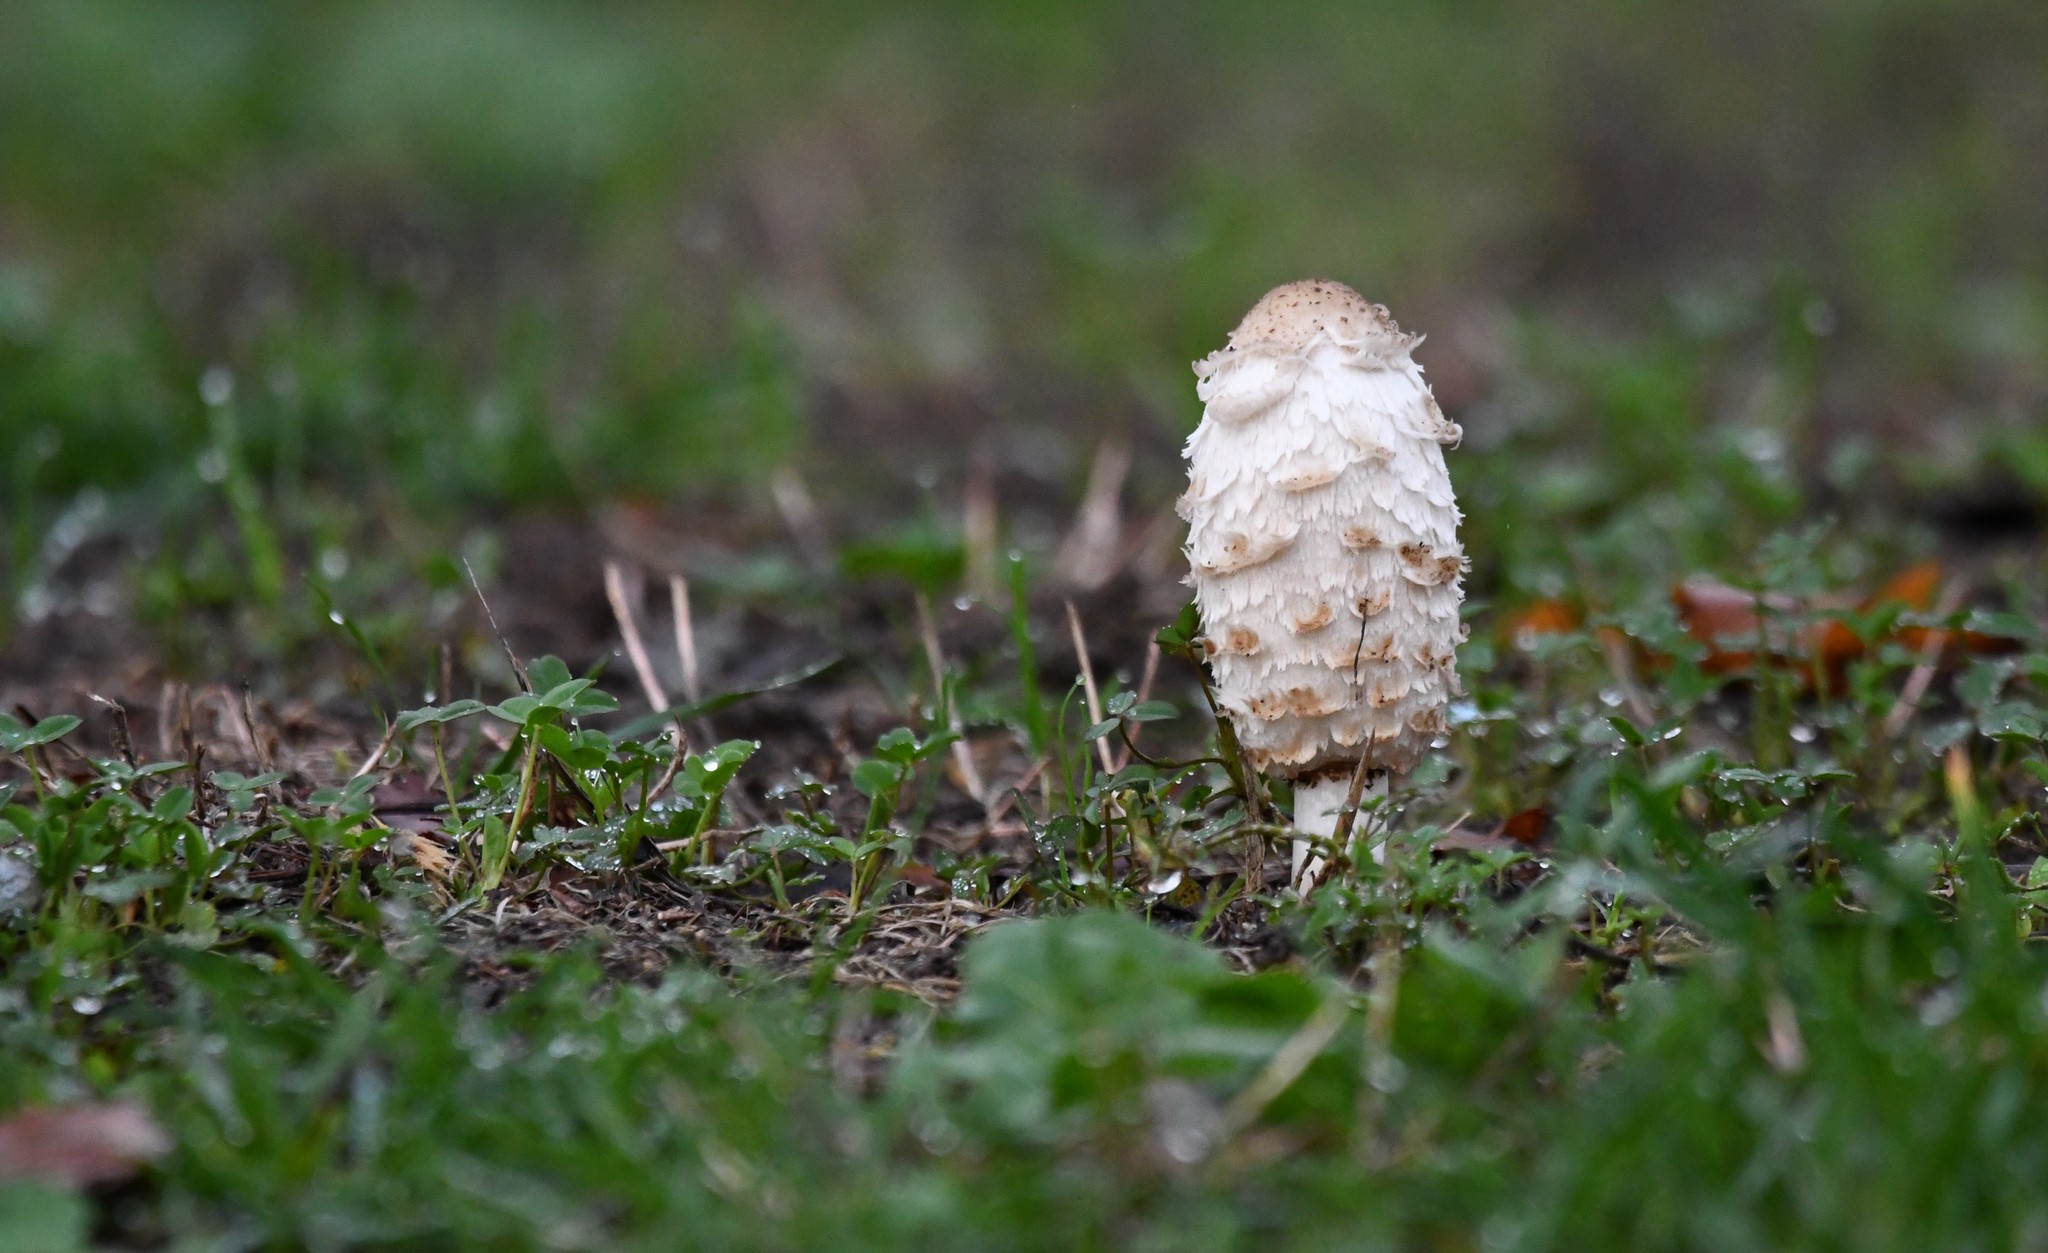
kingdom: Fungi
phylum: Basidiomycota
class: Agaricomycetes
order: Agaricales
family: Agaricaceae
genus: Coprinus
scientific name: Coprinus comatus
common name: Lawyer's wig
